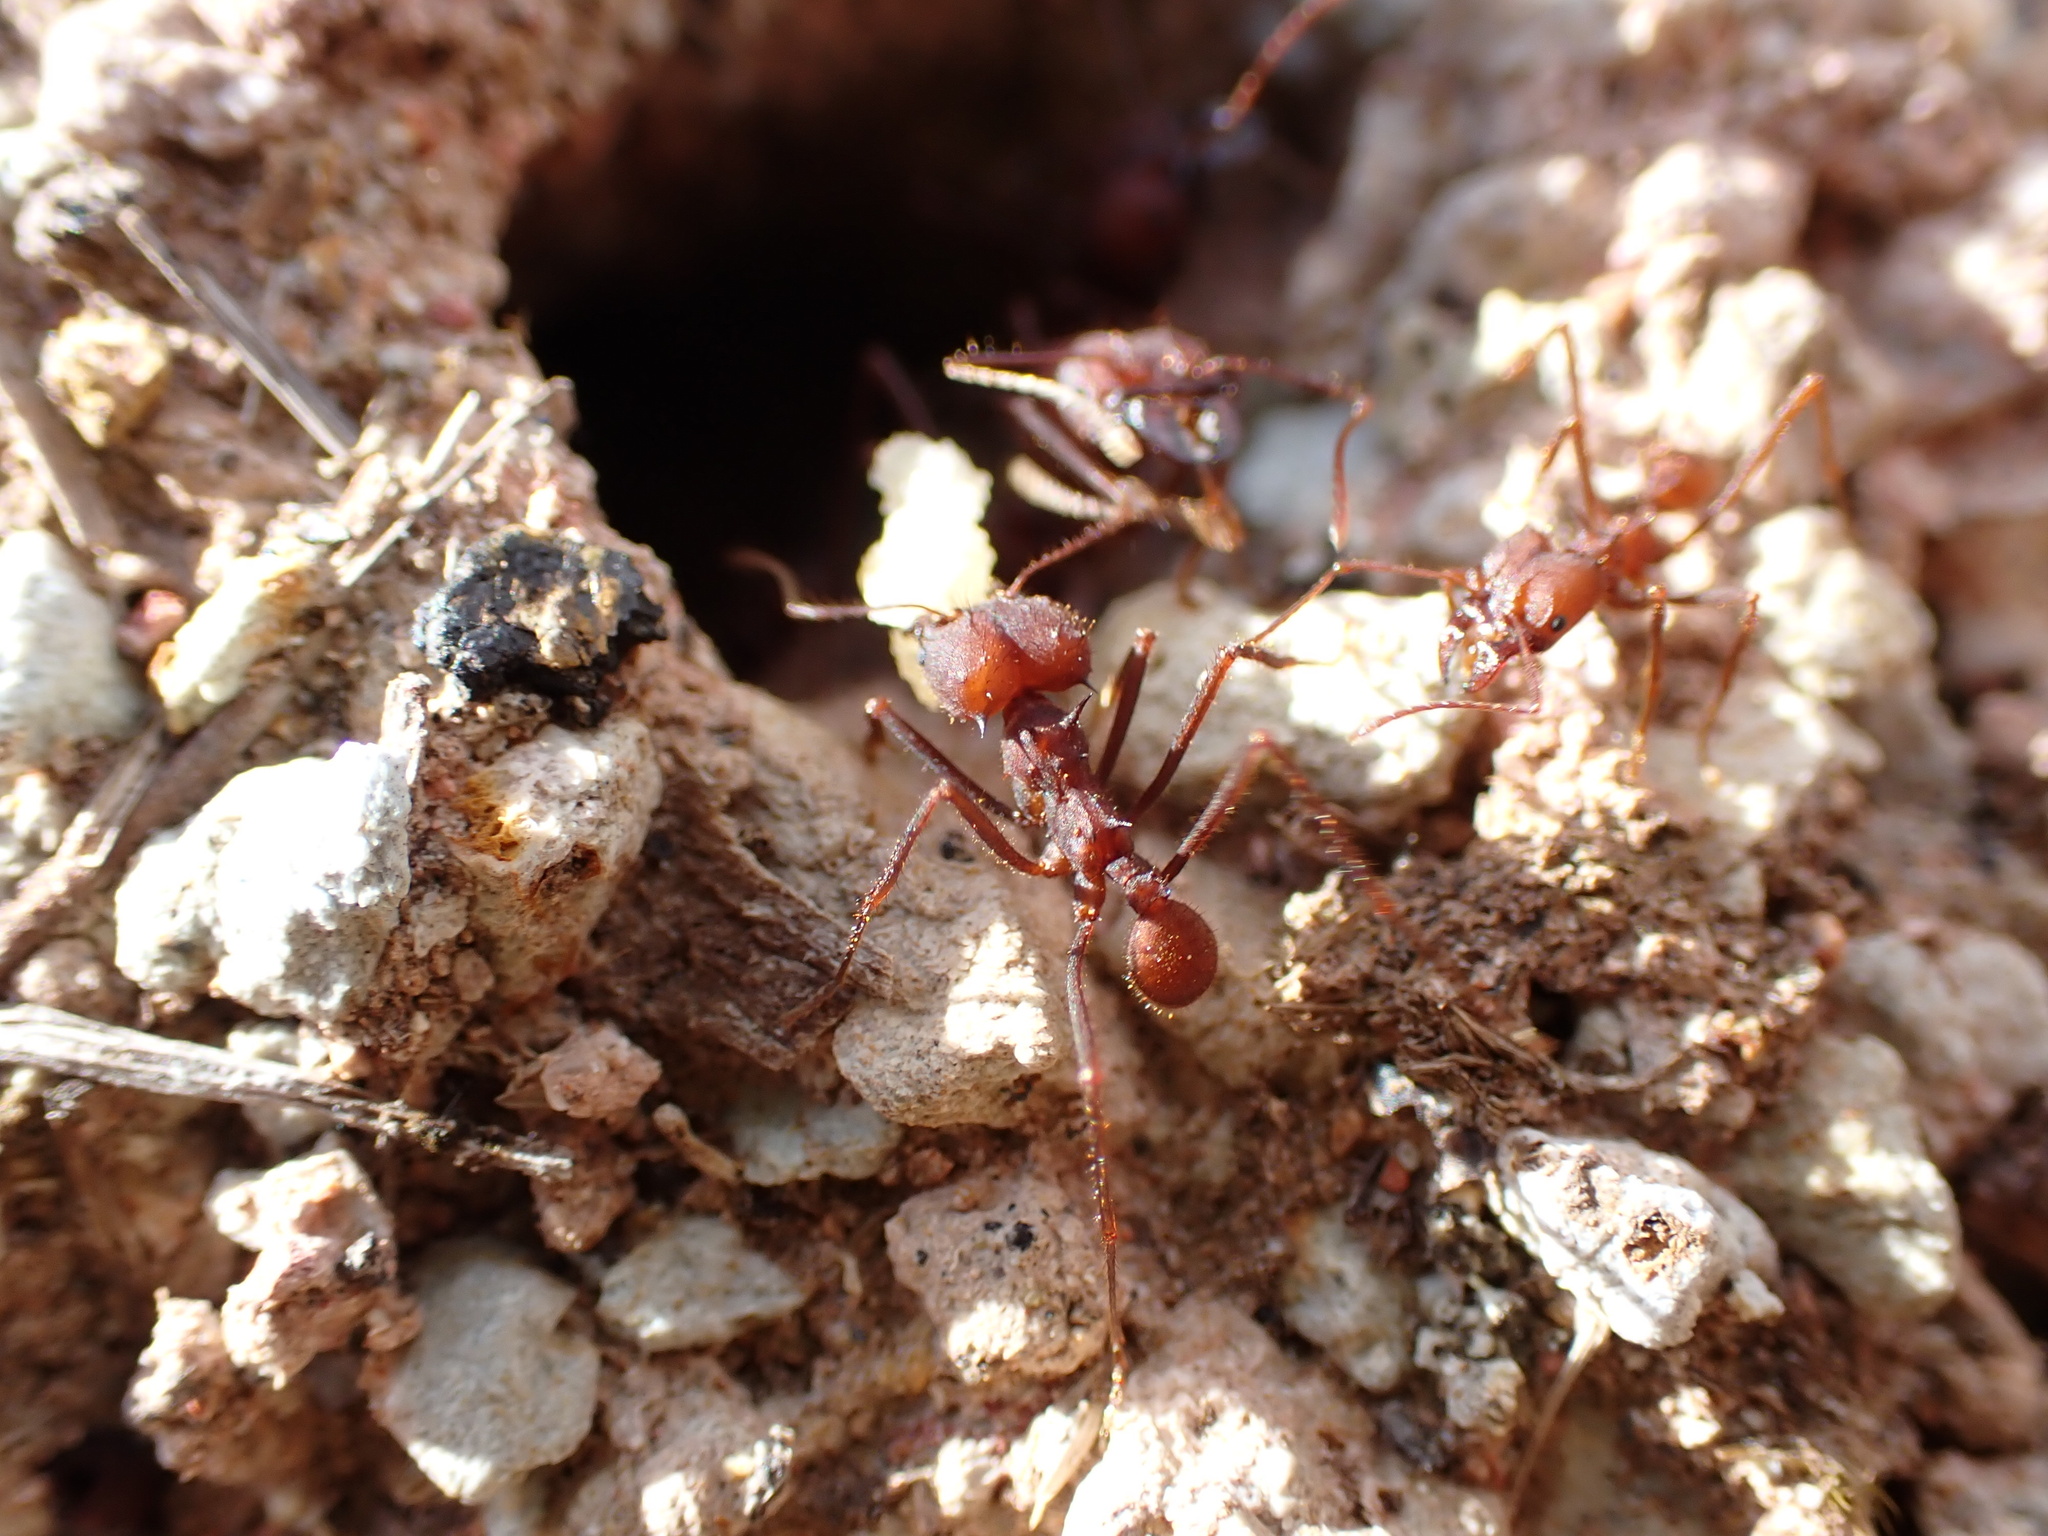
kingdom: Animalia
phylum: Arthropoda
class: Insecta
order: Hymenoptera
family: Formicidae
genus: Atta
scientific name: Atta sexdens
